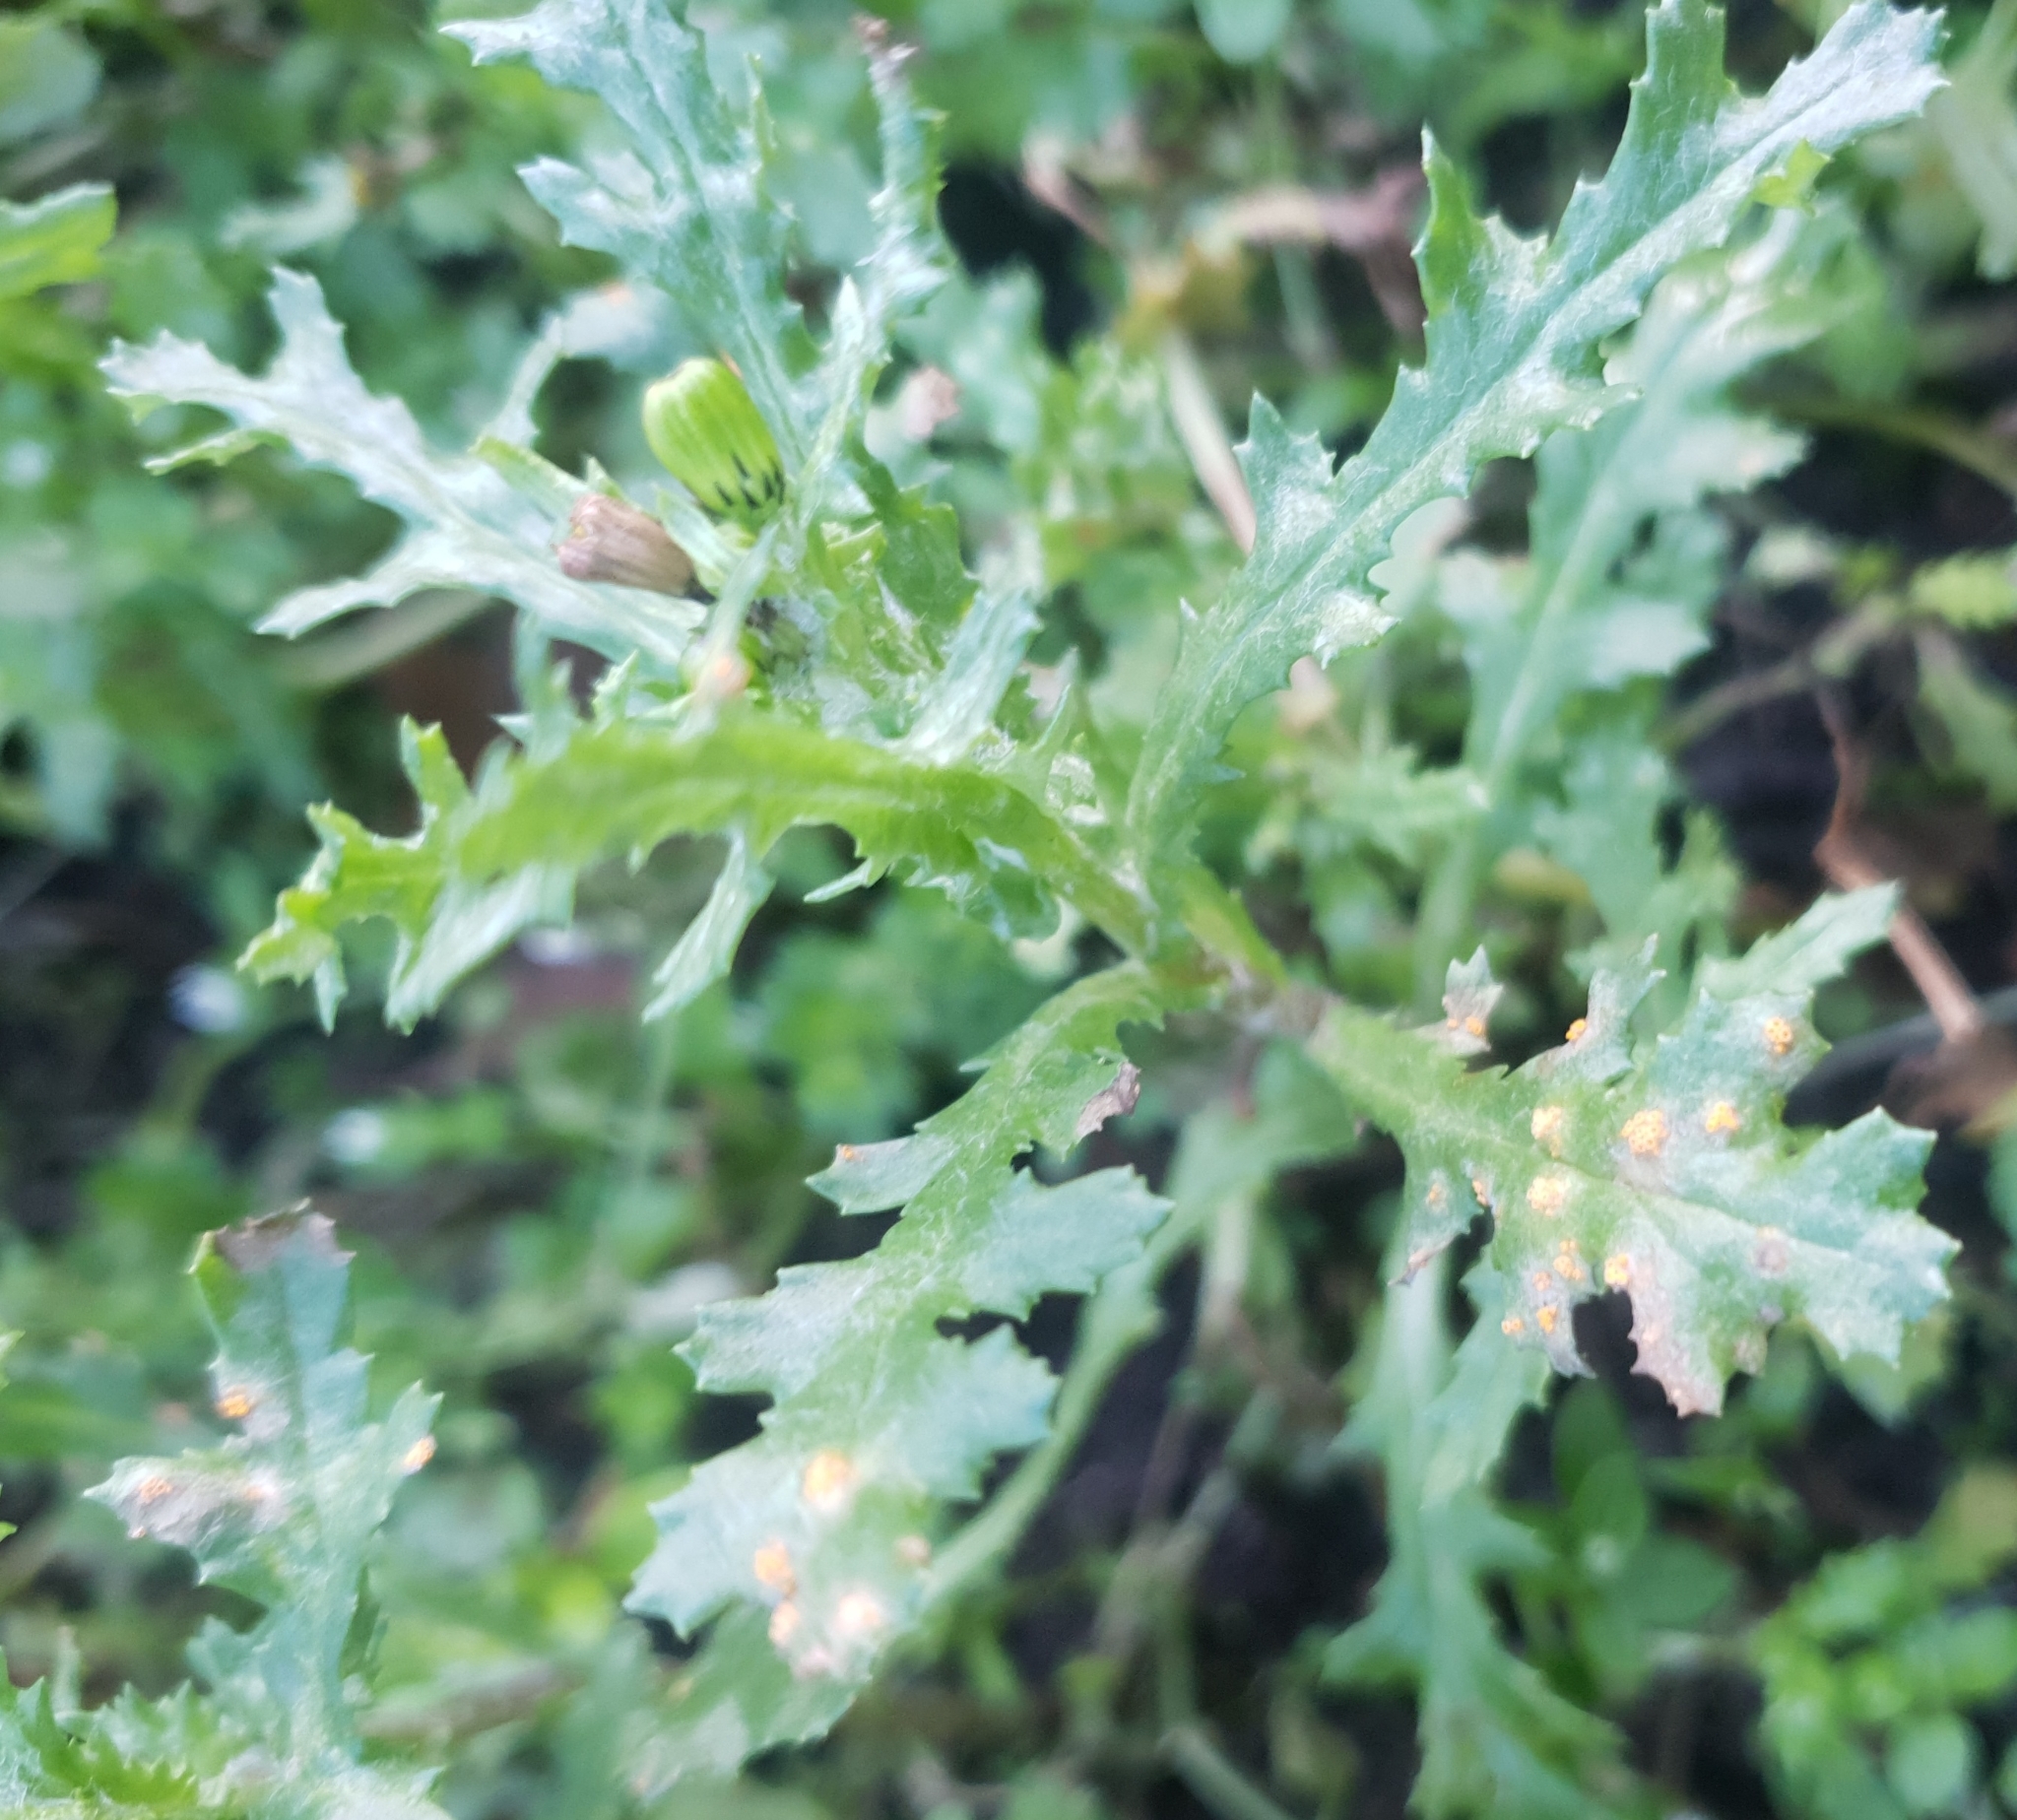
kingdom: Fungi
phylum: Basidiomycota
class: Pucciniomycetes
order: Pucciniales
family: Pucciniaceae
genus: Puccinia
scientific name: Puccinia lagenophorae
